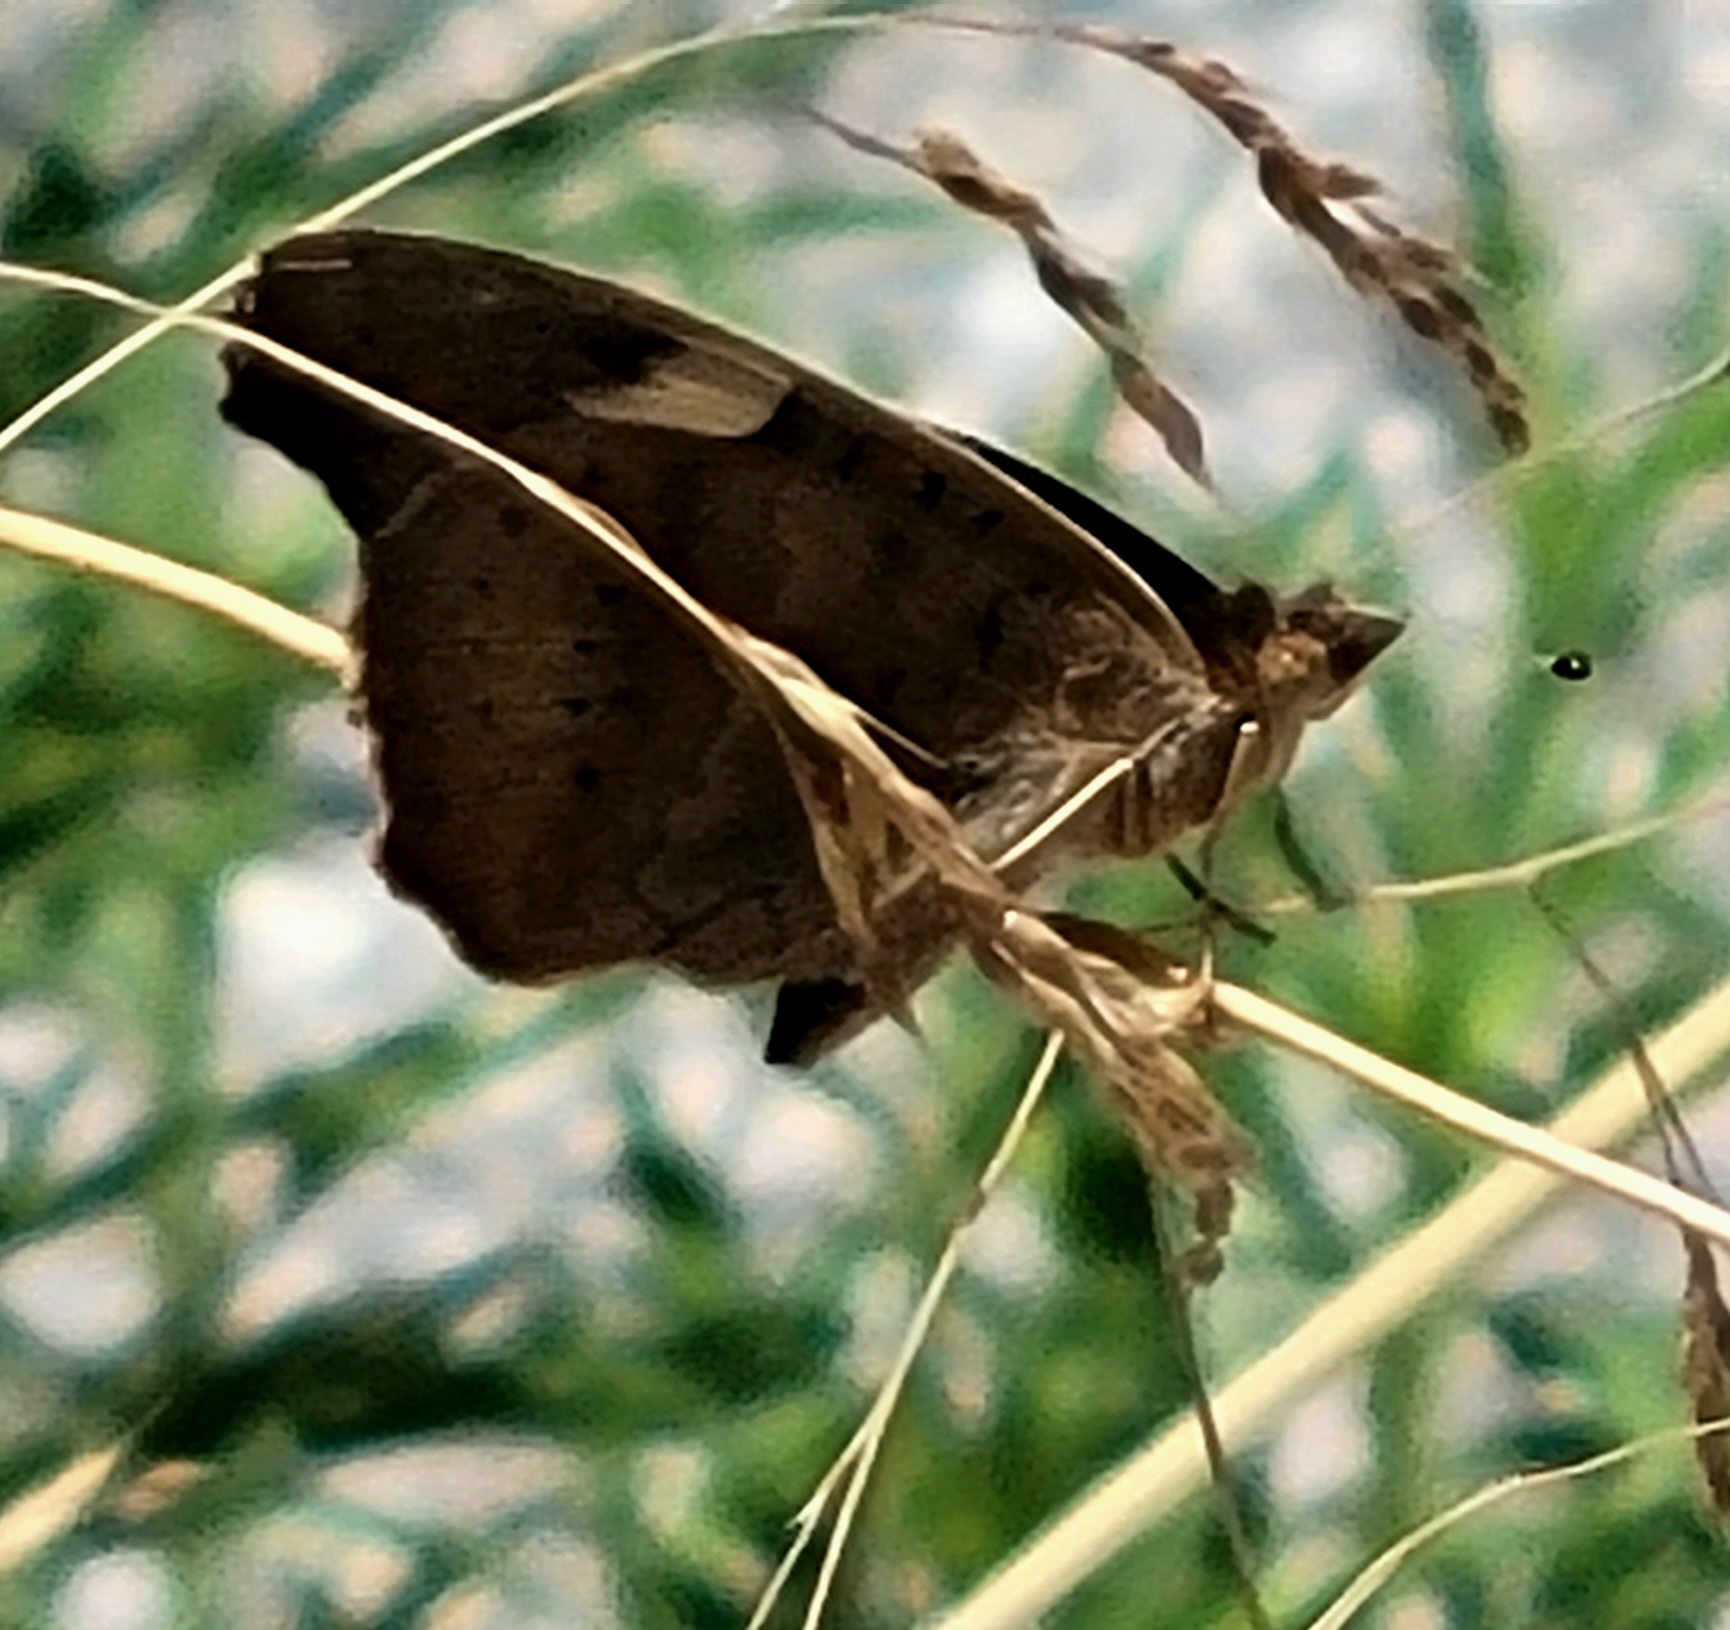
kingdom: Animalia
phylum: Arthropoda
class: Insecta
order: Lepidoptera
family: Nymphalidae
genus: Junonia
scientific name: Junonia grisea
